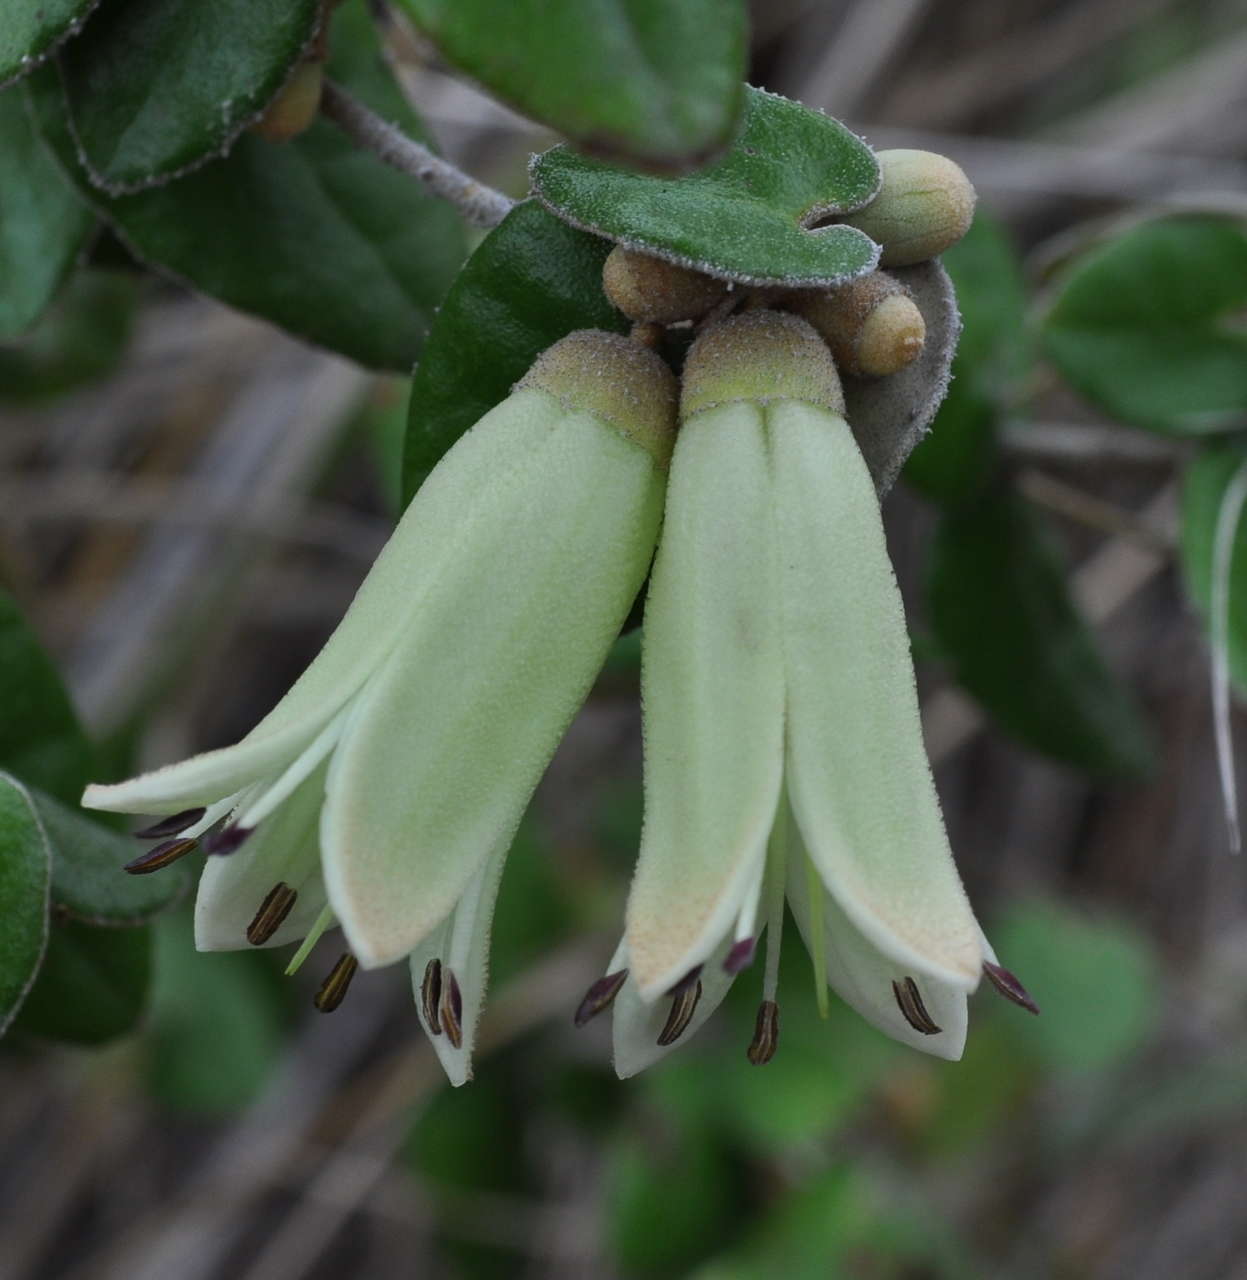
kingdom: Plantae
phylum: Tracheophyta
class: Magnoliopsida
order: Sapindales
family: Rutaceae
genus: Correa
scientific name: Correa reflexa
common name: Common correa
